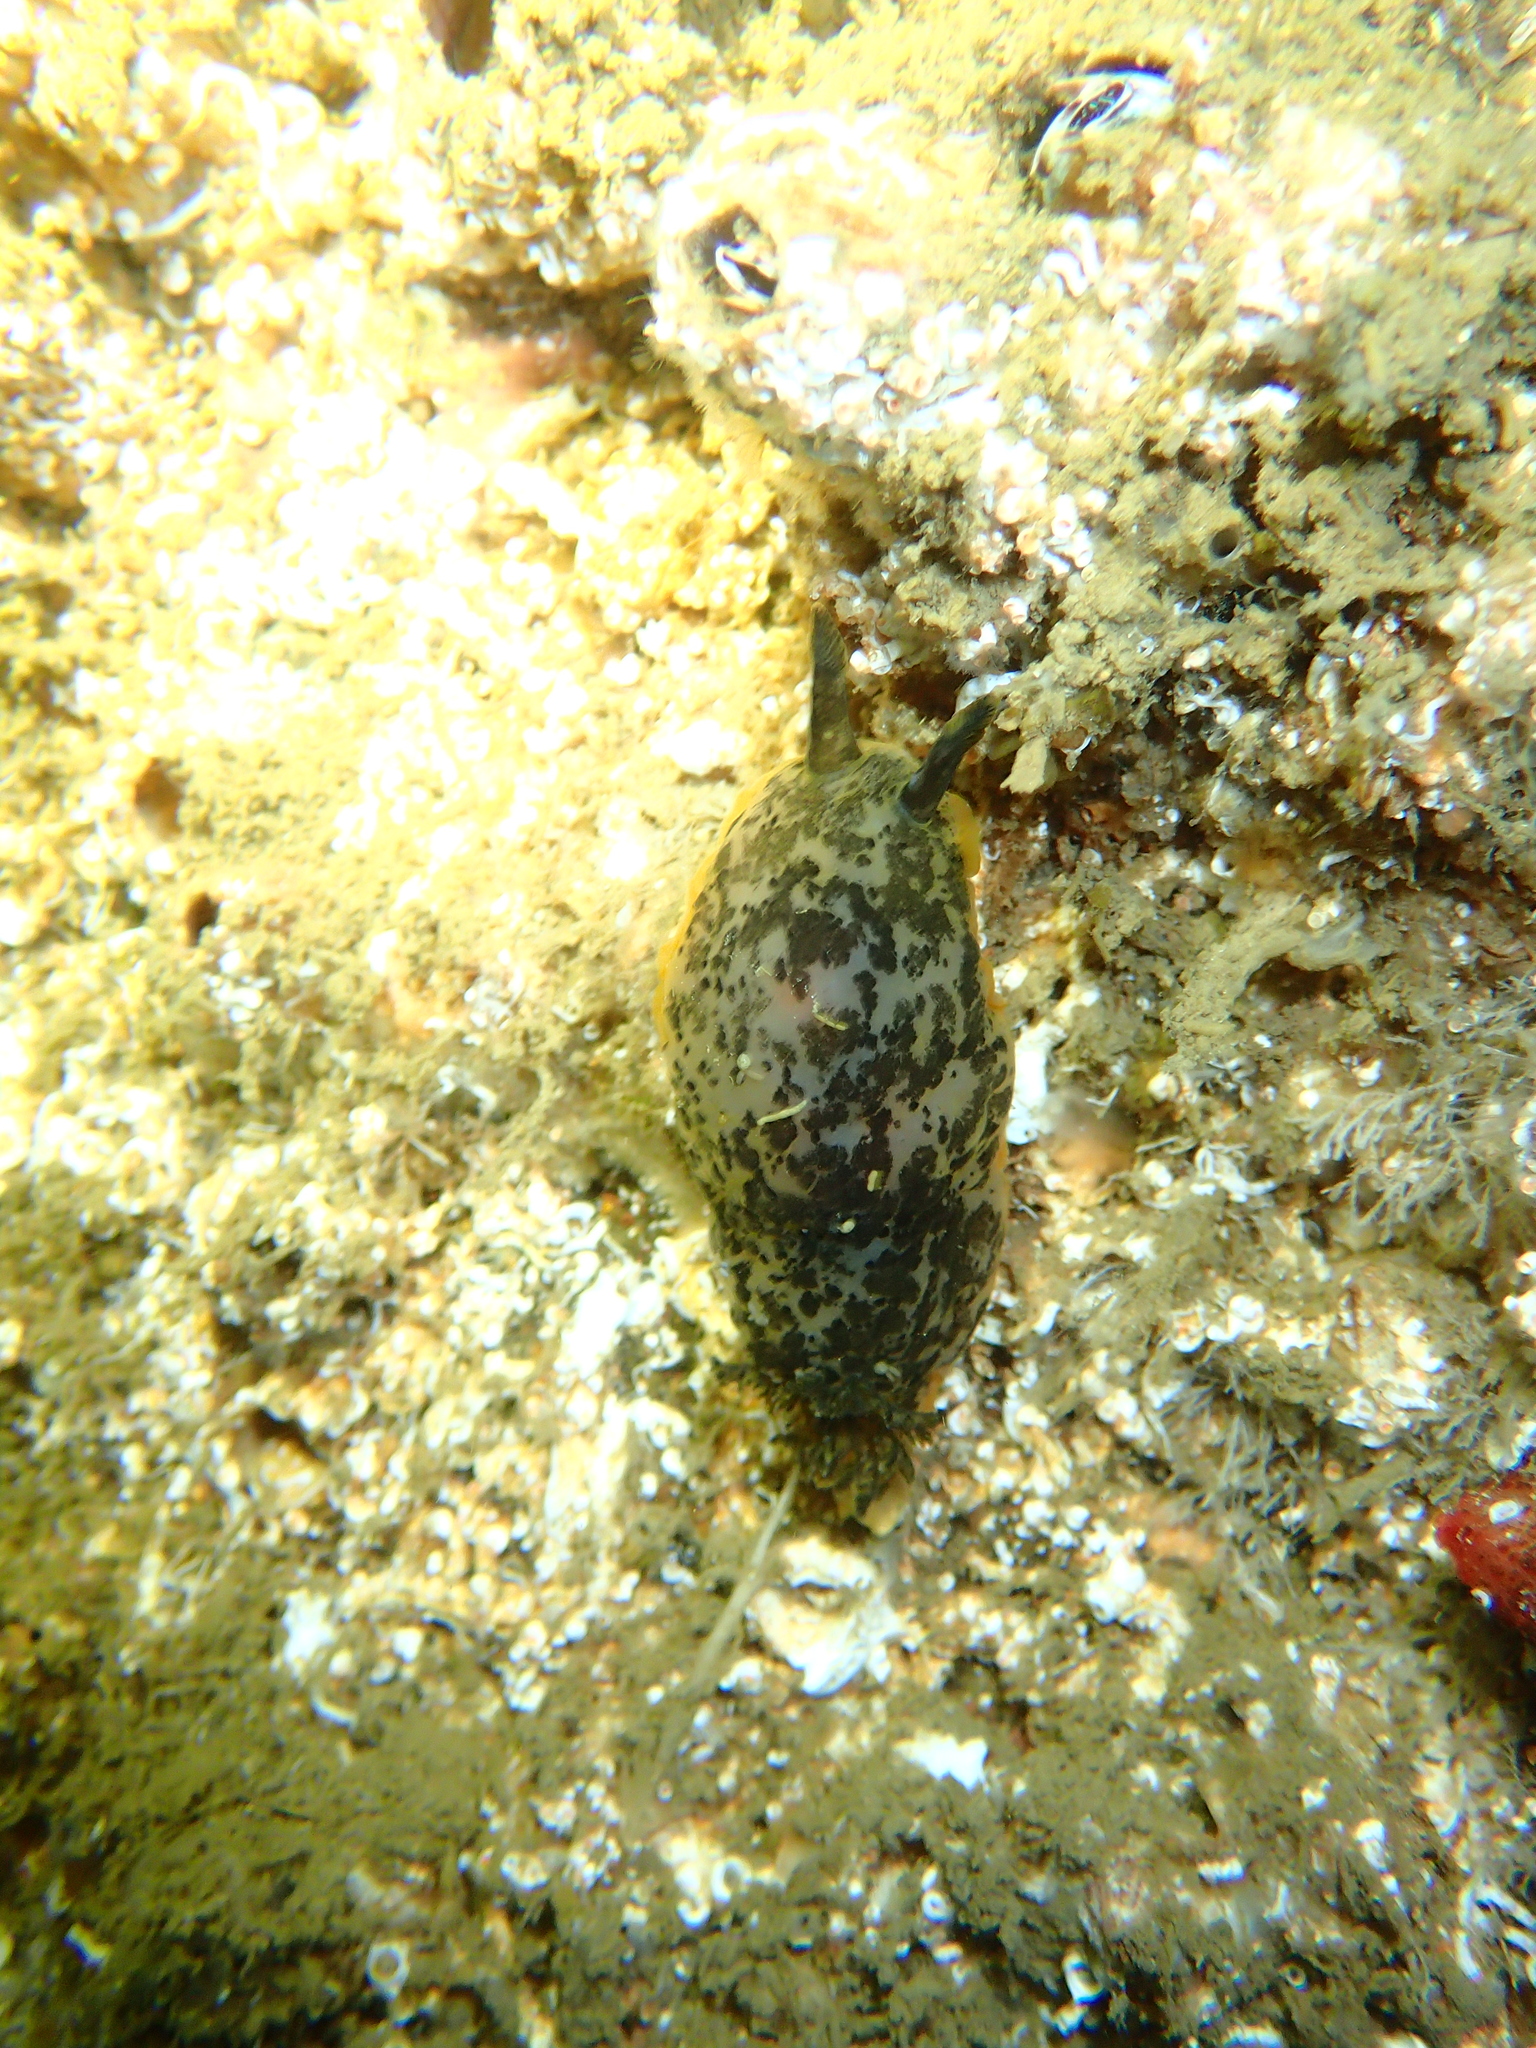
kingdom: Animalia
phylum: Mollusca
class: Gastropoda
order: Nudibranchia
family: Dendrodorididae
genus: Dendrodoris
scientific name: Dendrodoris limbata
